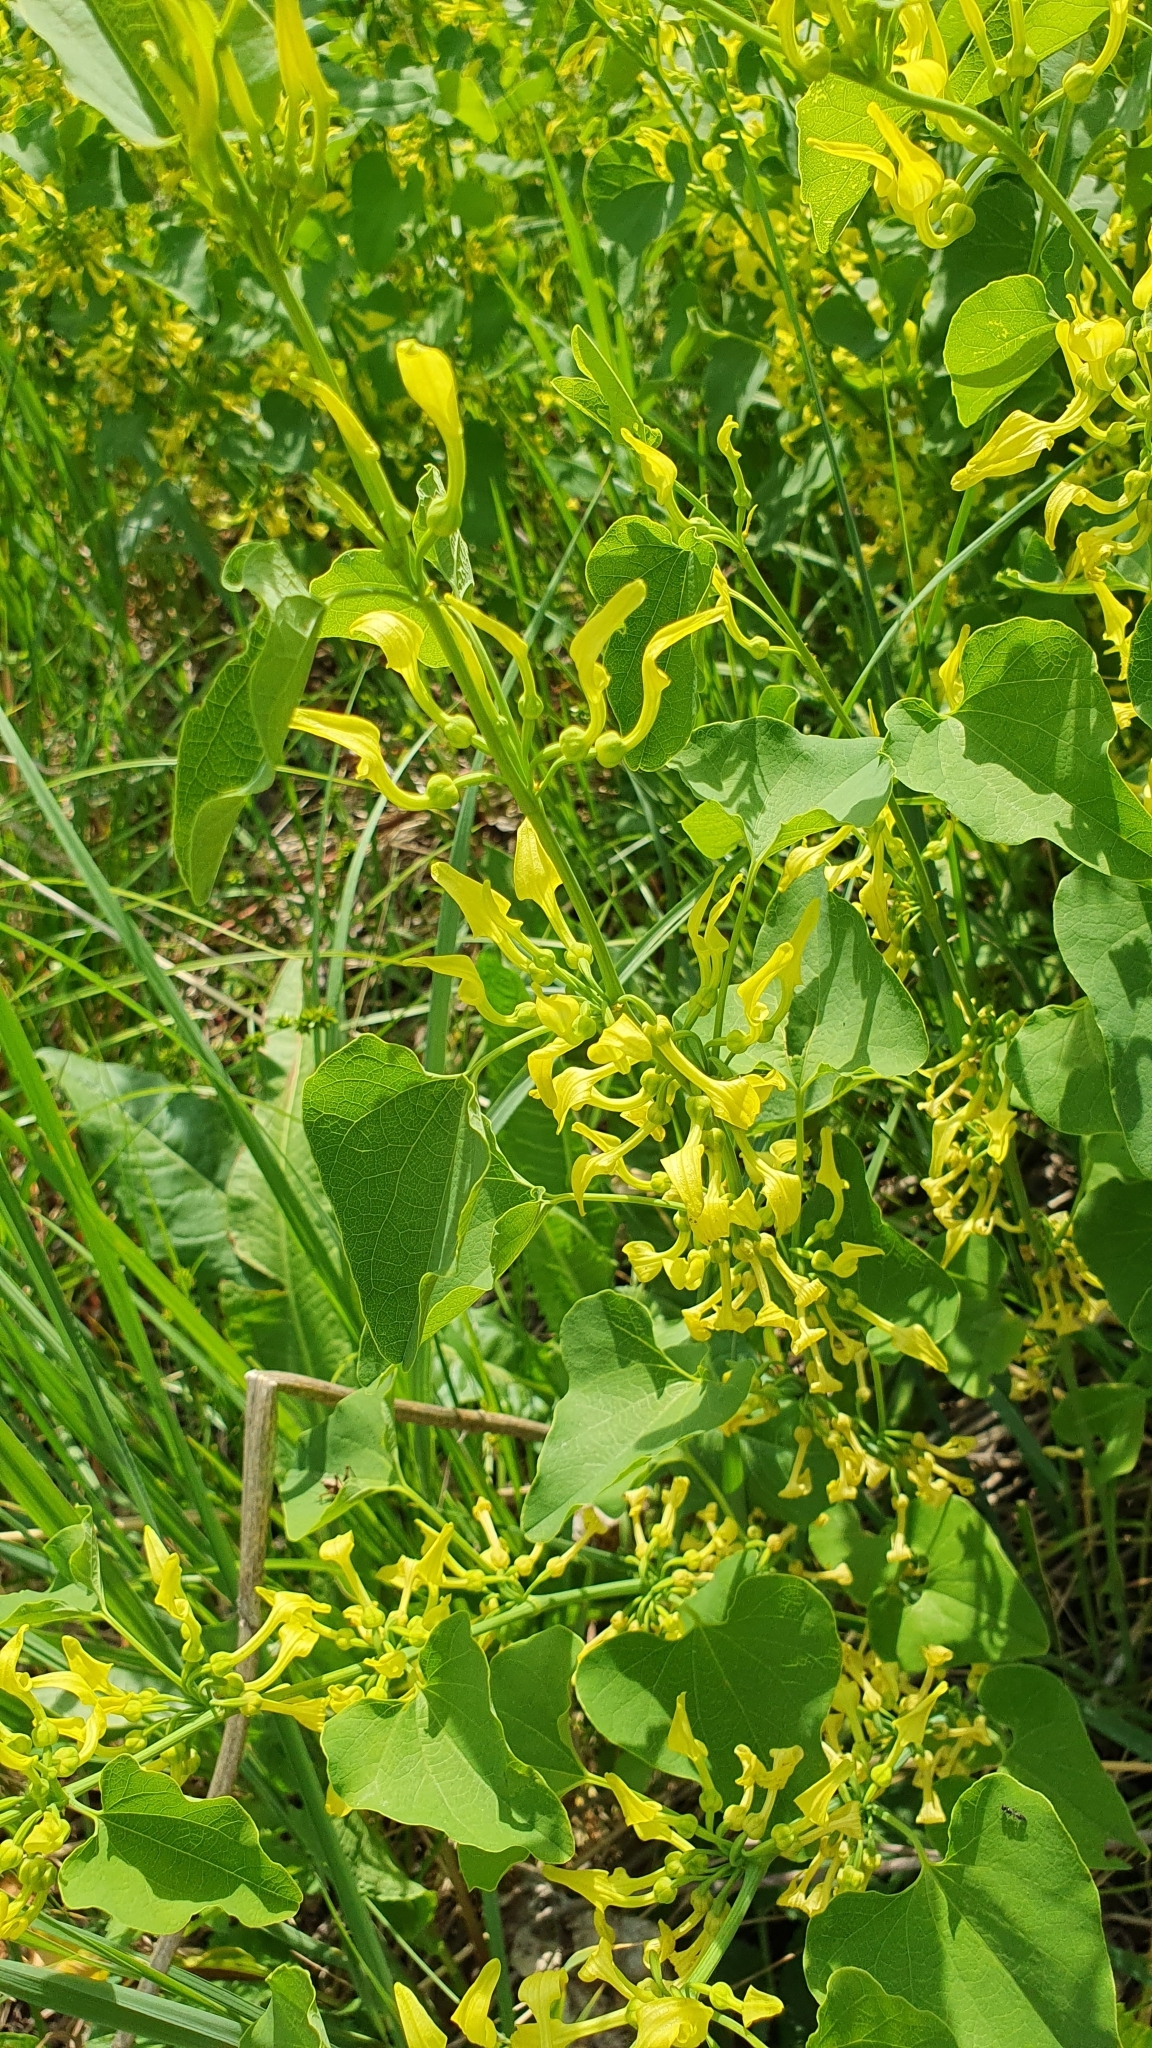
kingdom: Plantae
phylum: Tracheophyta
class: Magnoliopsida
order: Piperales
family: Aristolochiaceae
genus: Aristolochia
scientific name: Aristolochia clematitis
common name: Birthwort
